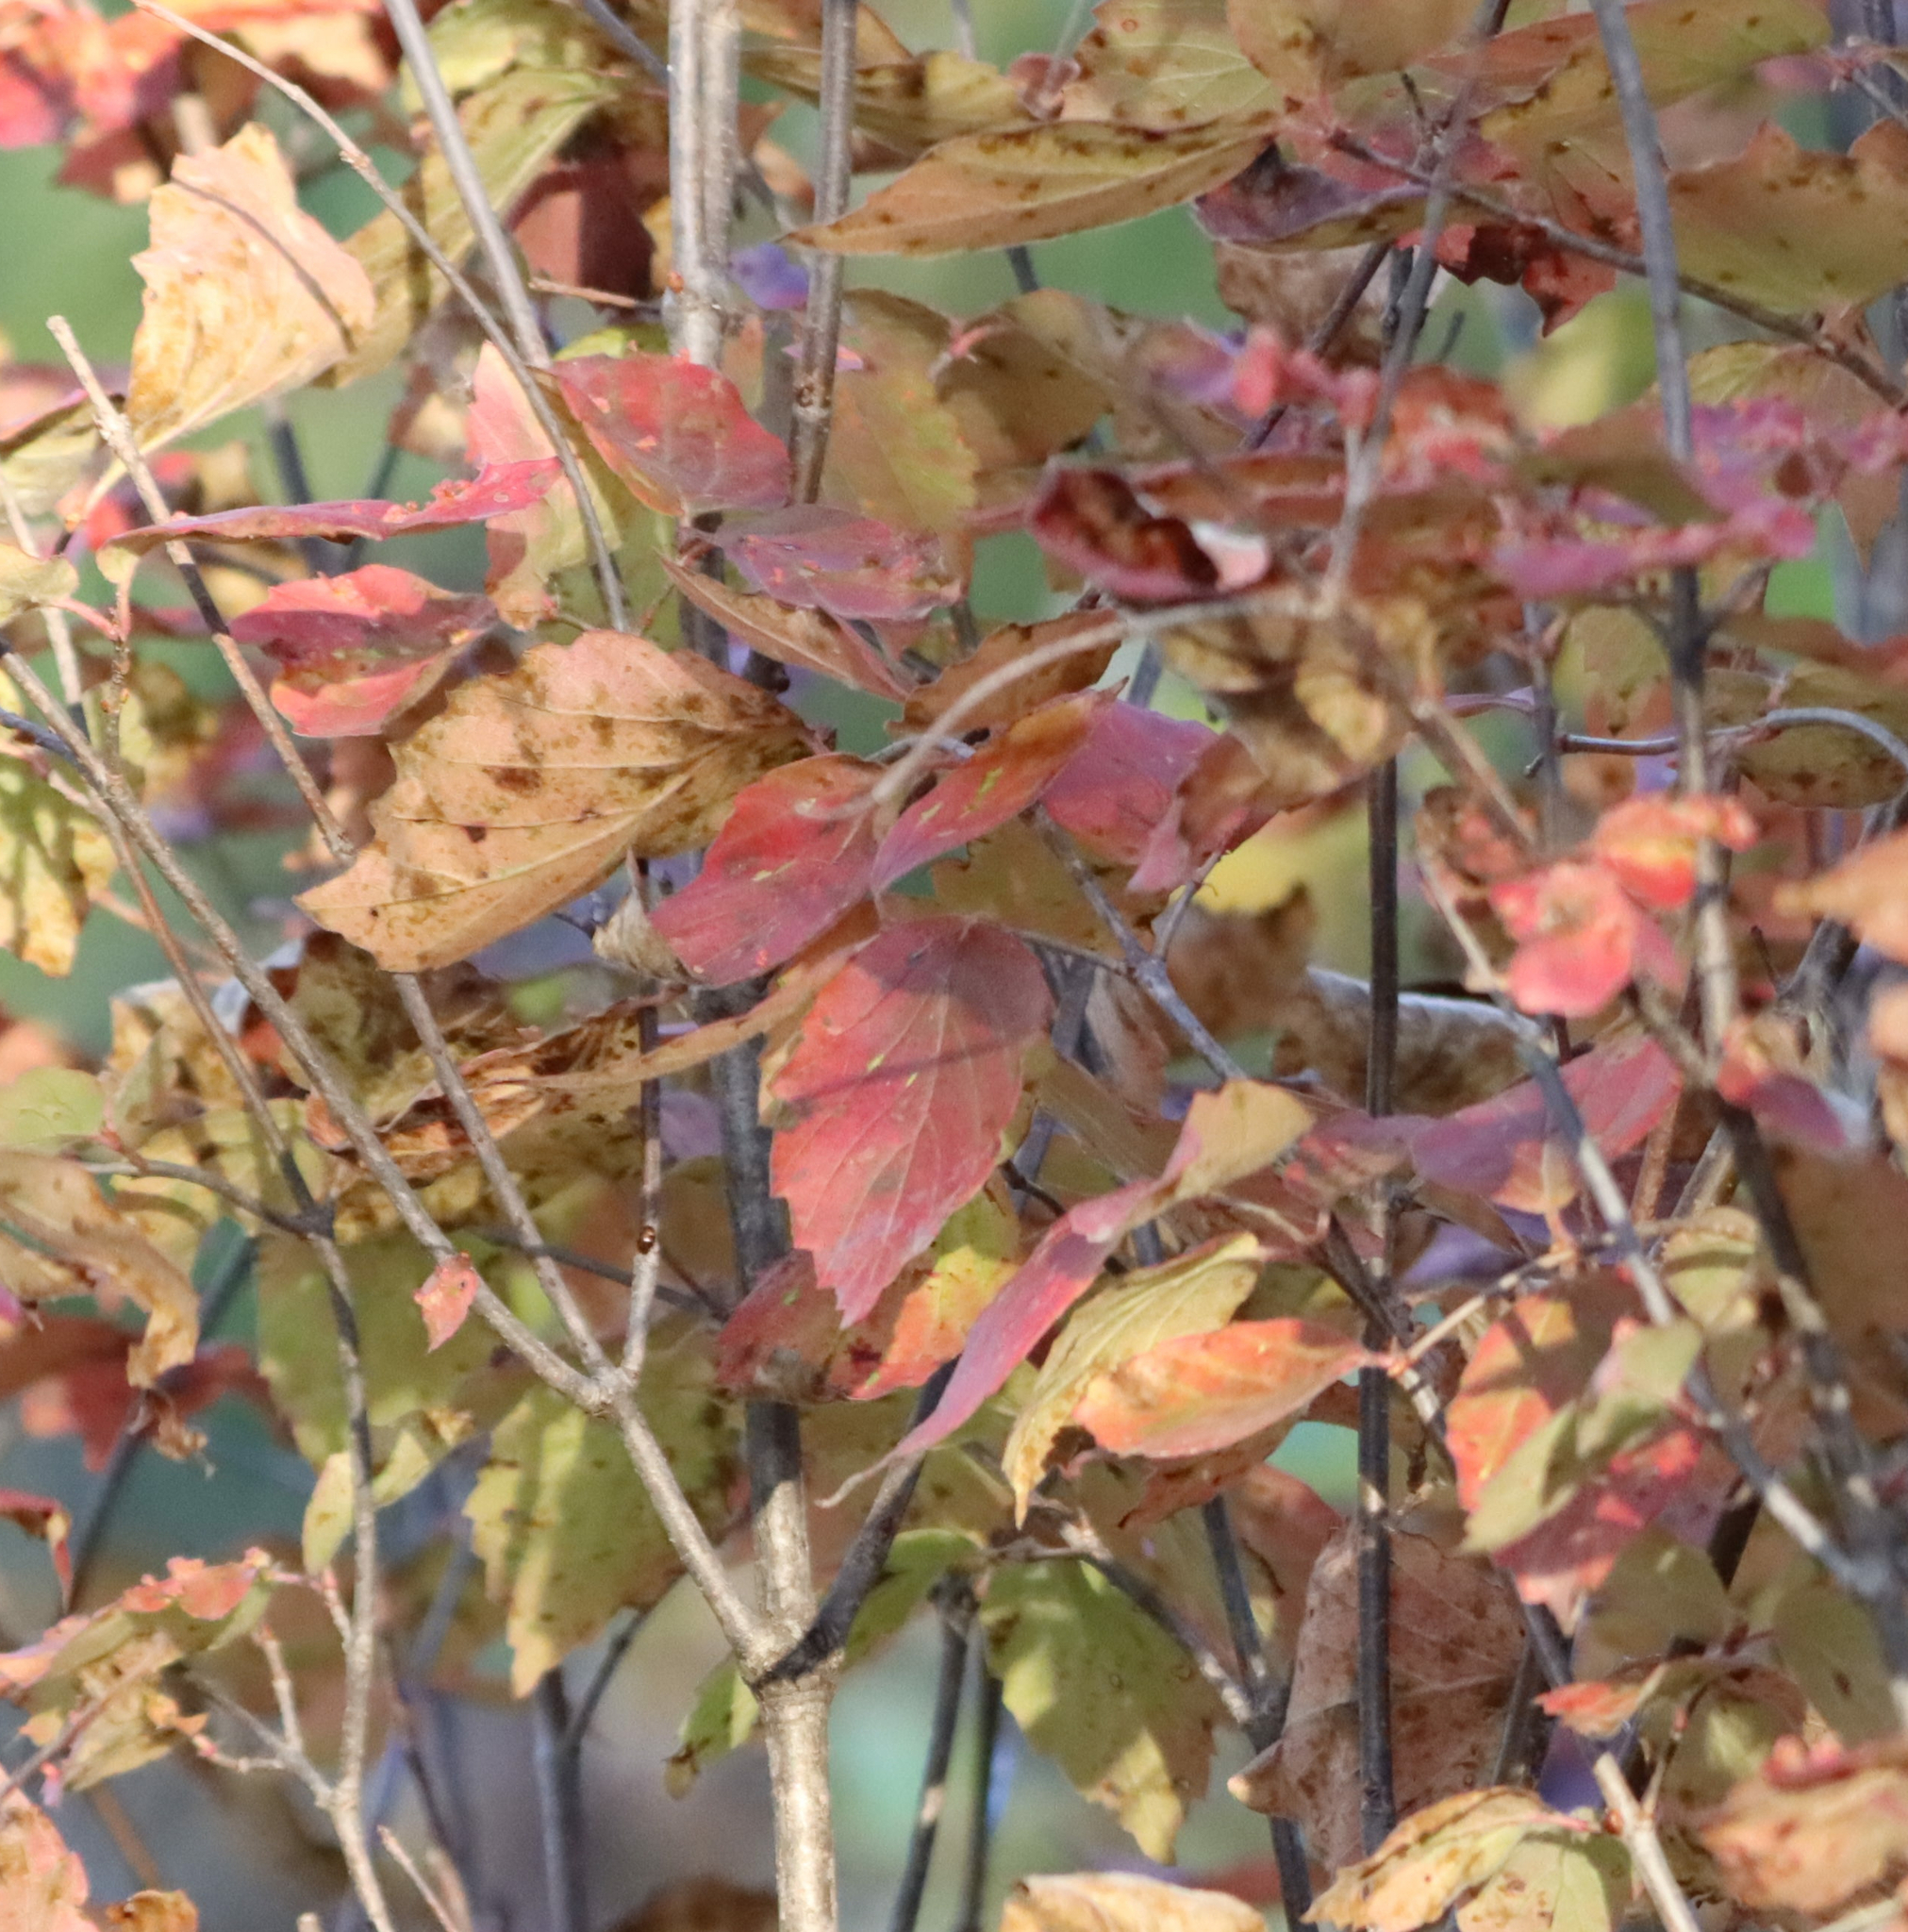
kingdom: Plantae
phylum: Tracheophyta
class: Magnoliopsida
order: Dipsacales
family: Viburnaceae
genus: Viburnum
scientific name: Viburnum rafinesqueanum
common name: Downy arrow-wood
